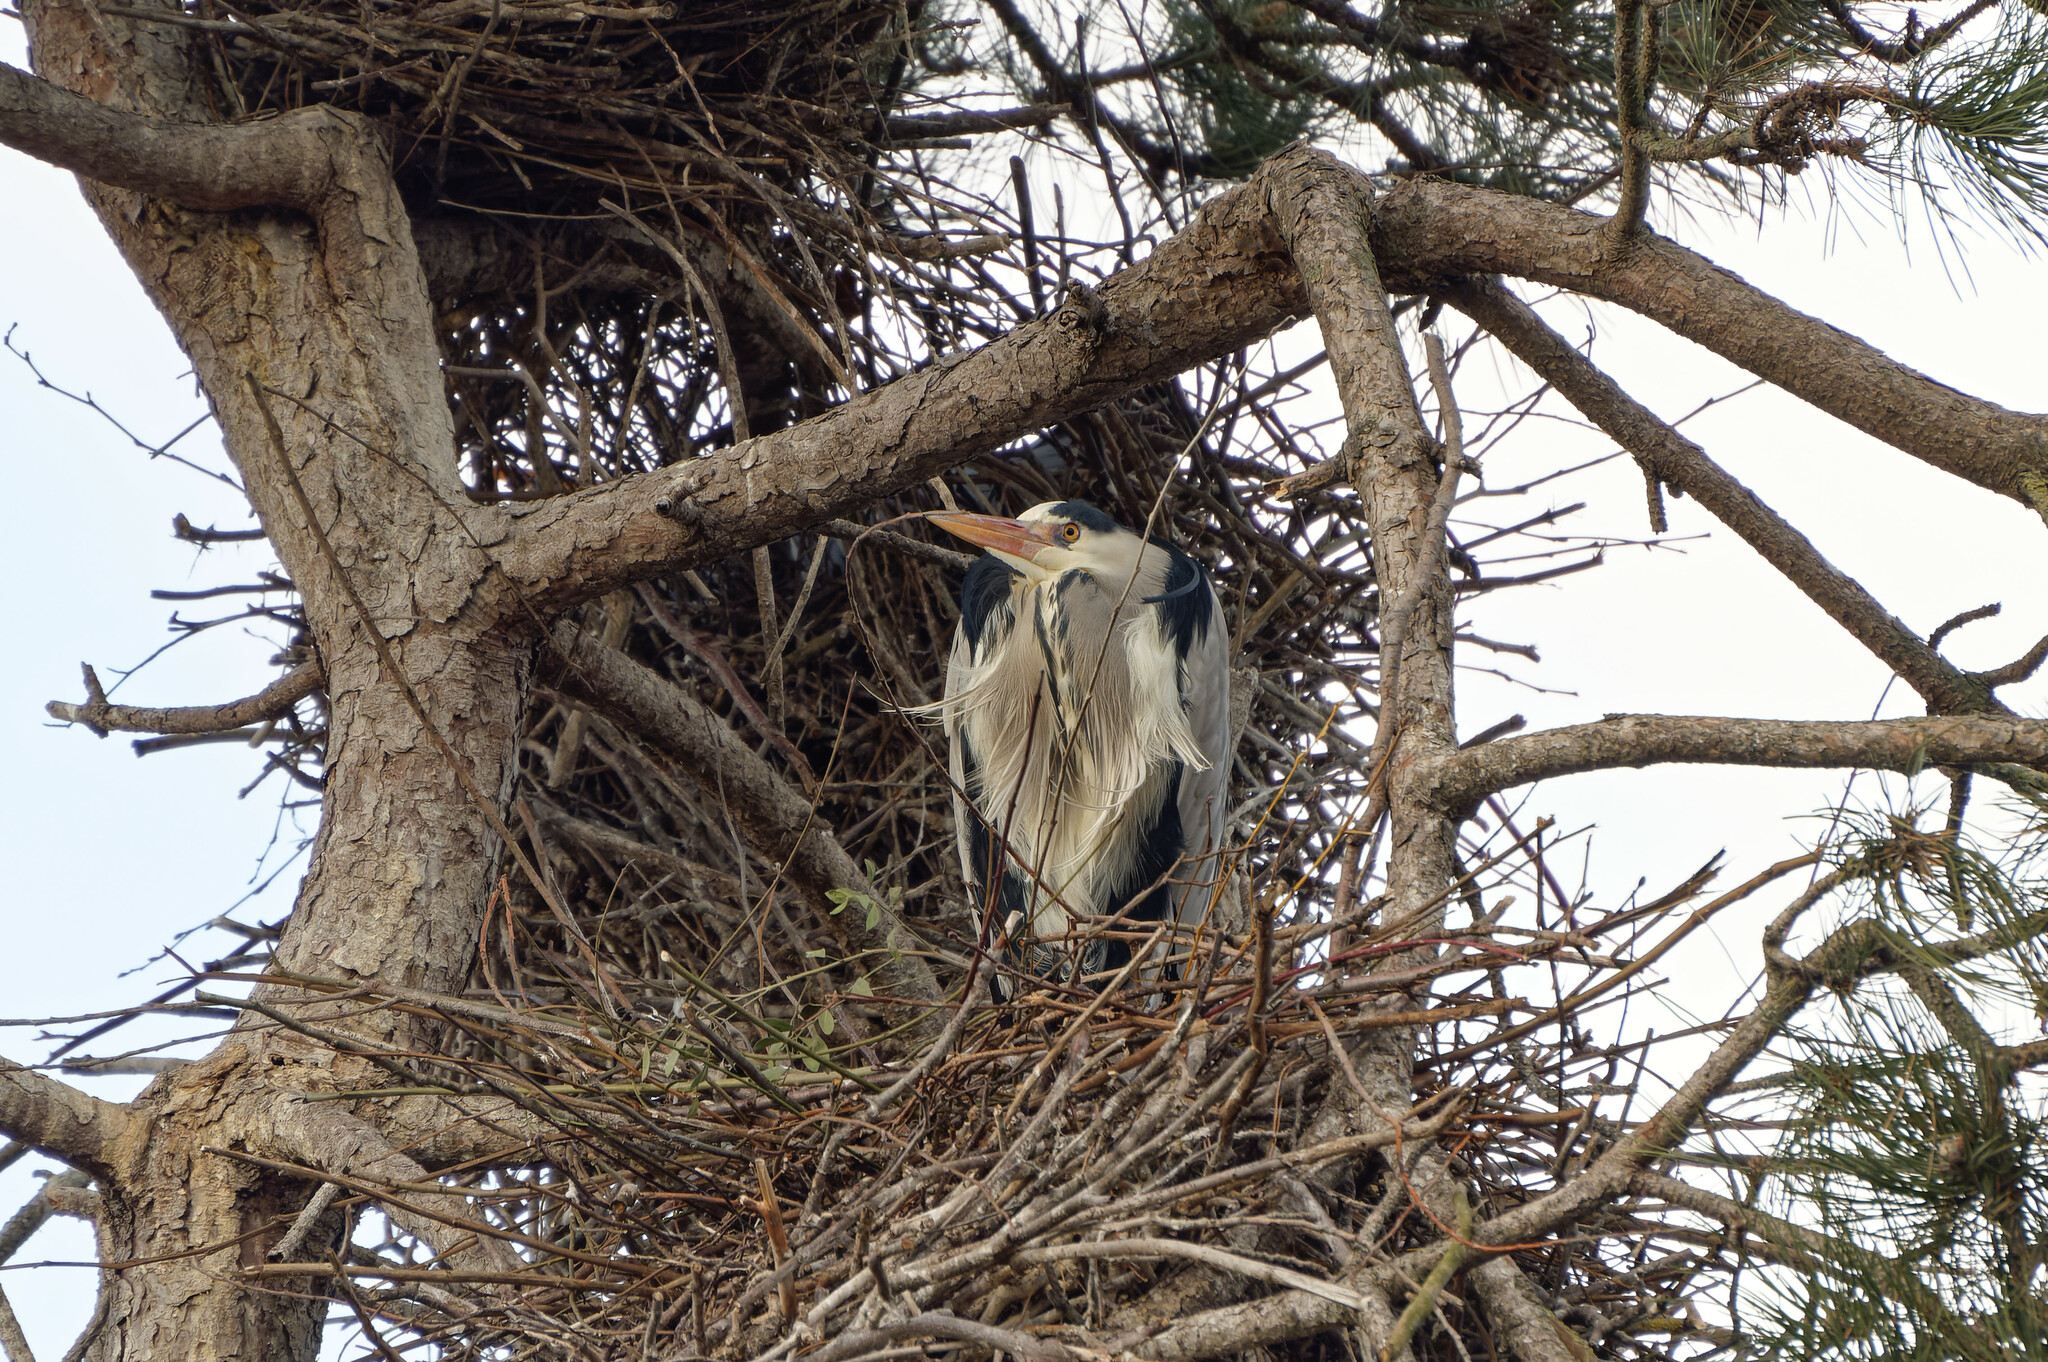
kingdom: Animalia
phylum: Chordata
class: Aves
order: Pelecaniformes
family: Ardeidae
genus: Ardea
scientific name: Ardea cinerea
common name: Grey heron
